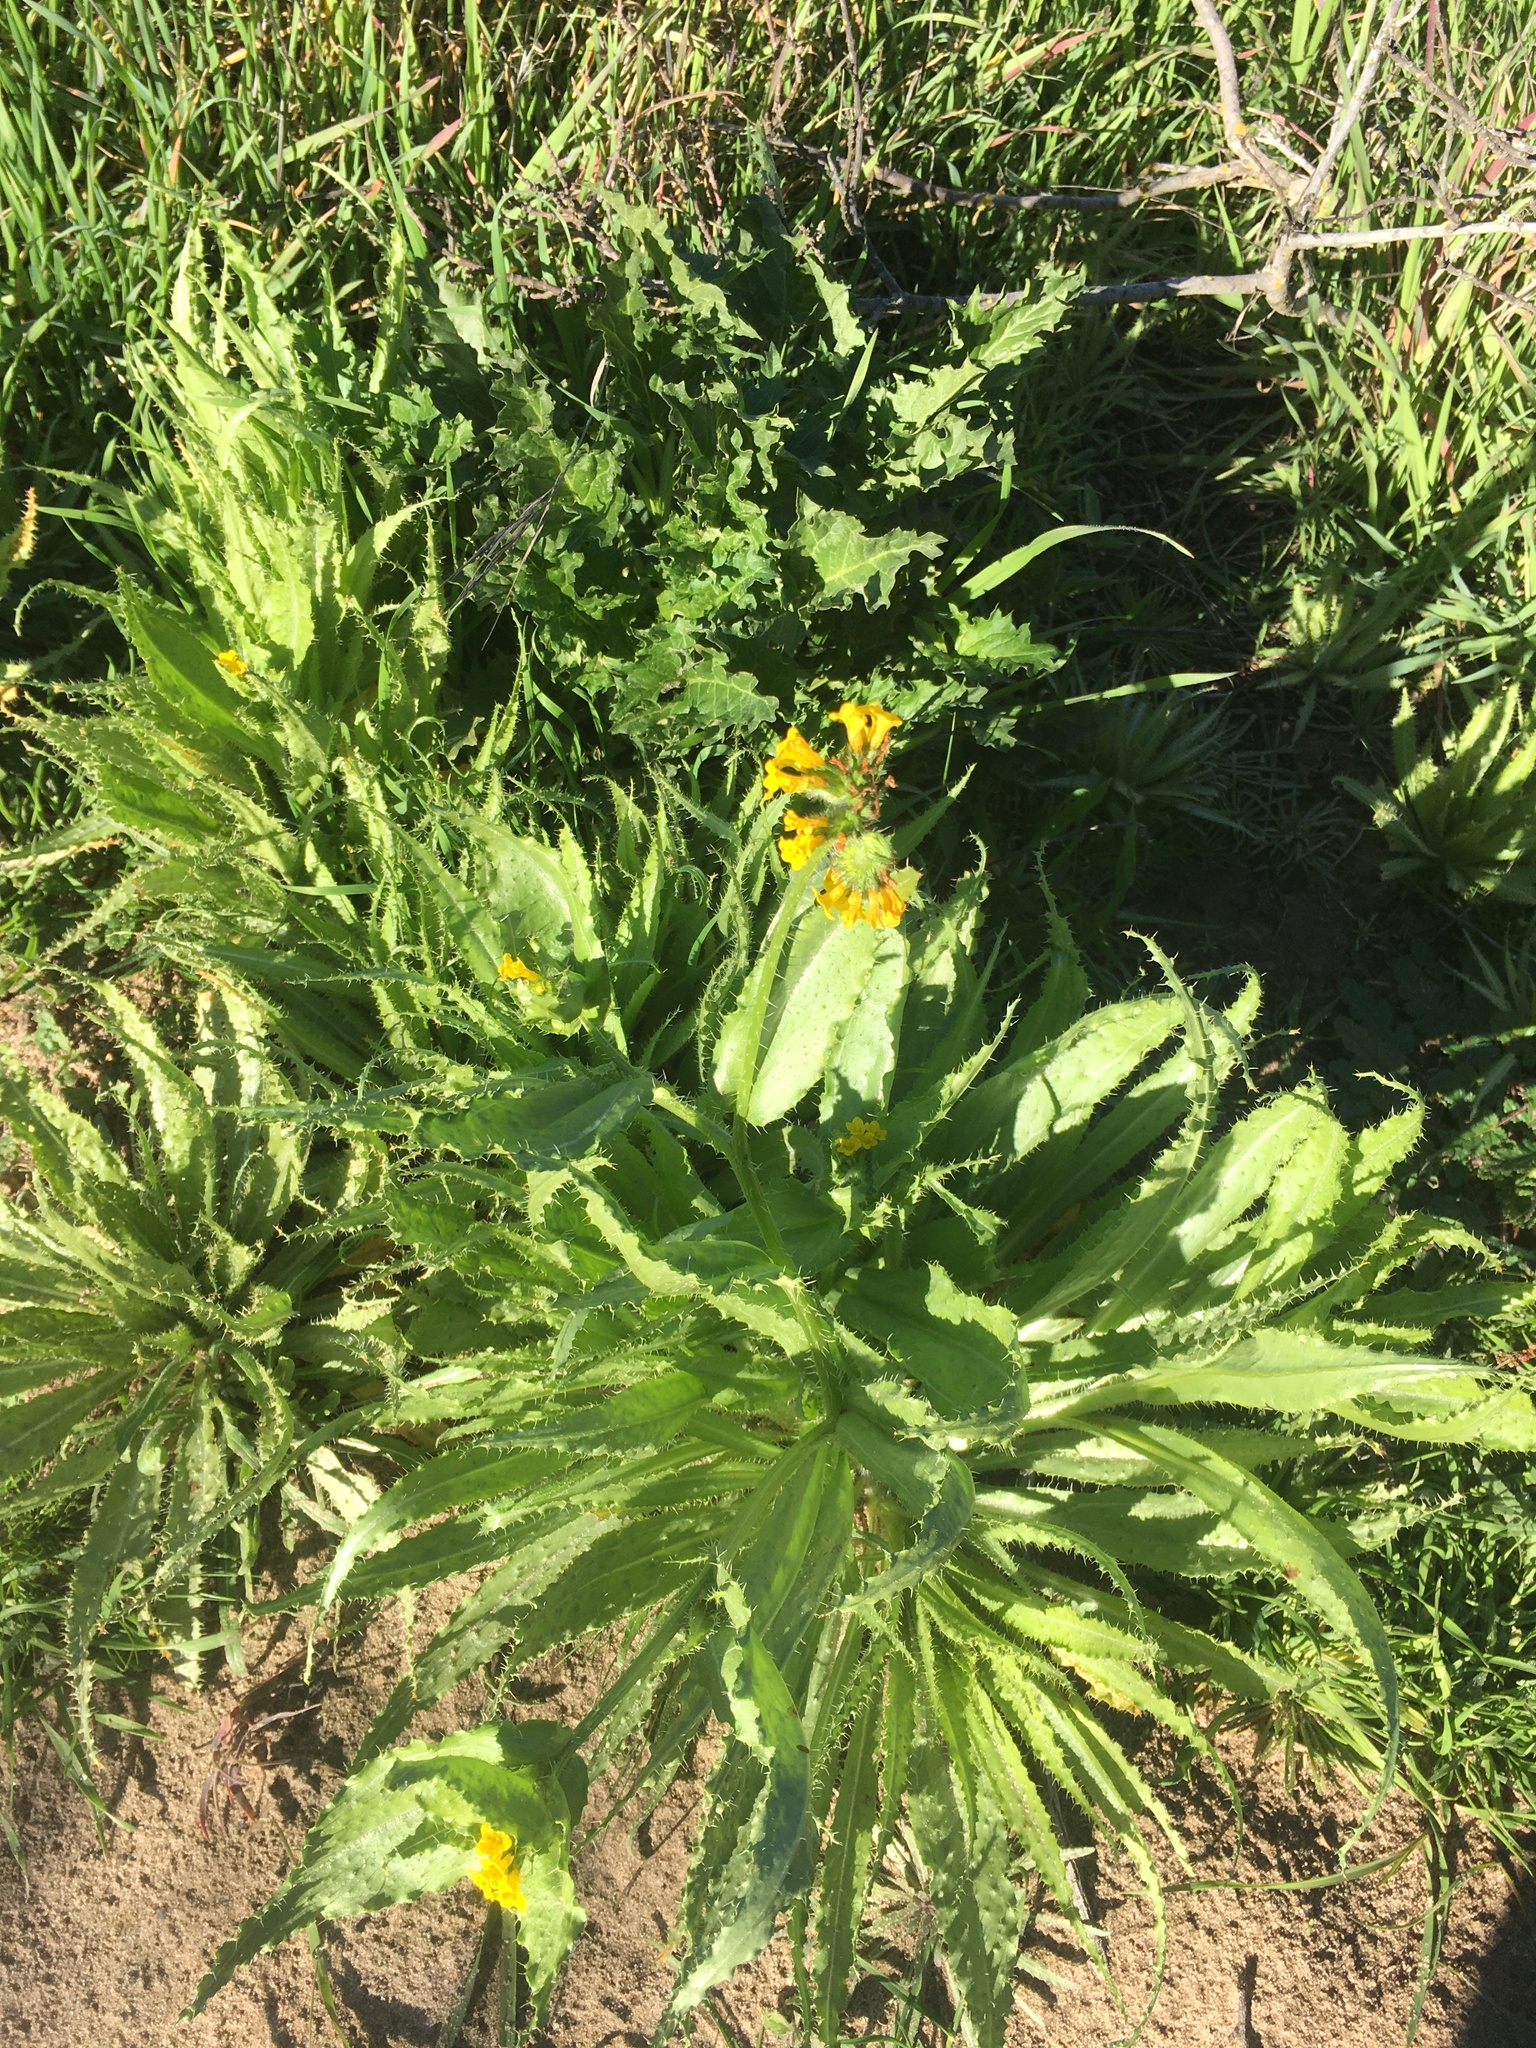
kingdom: Plantae
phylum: Tracheophyta
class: Magnoliopsida
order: Boraginales
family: Boraginaceae
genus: Amsinckia
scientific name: Amsinckia spectabilis
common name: Seaside fiddleneck
